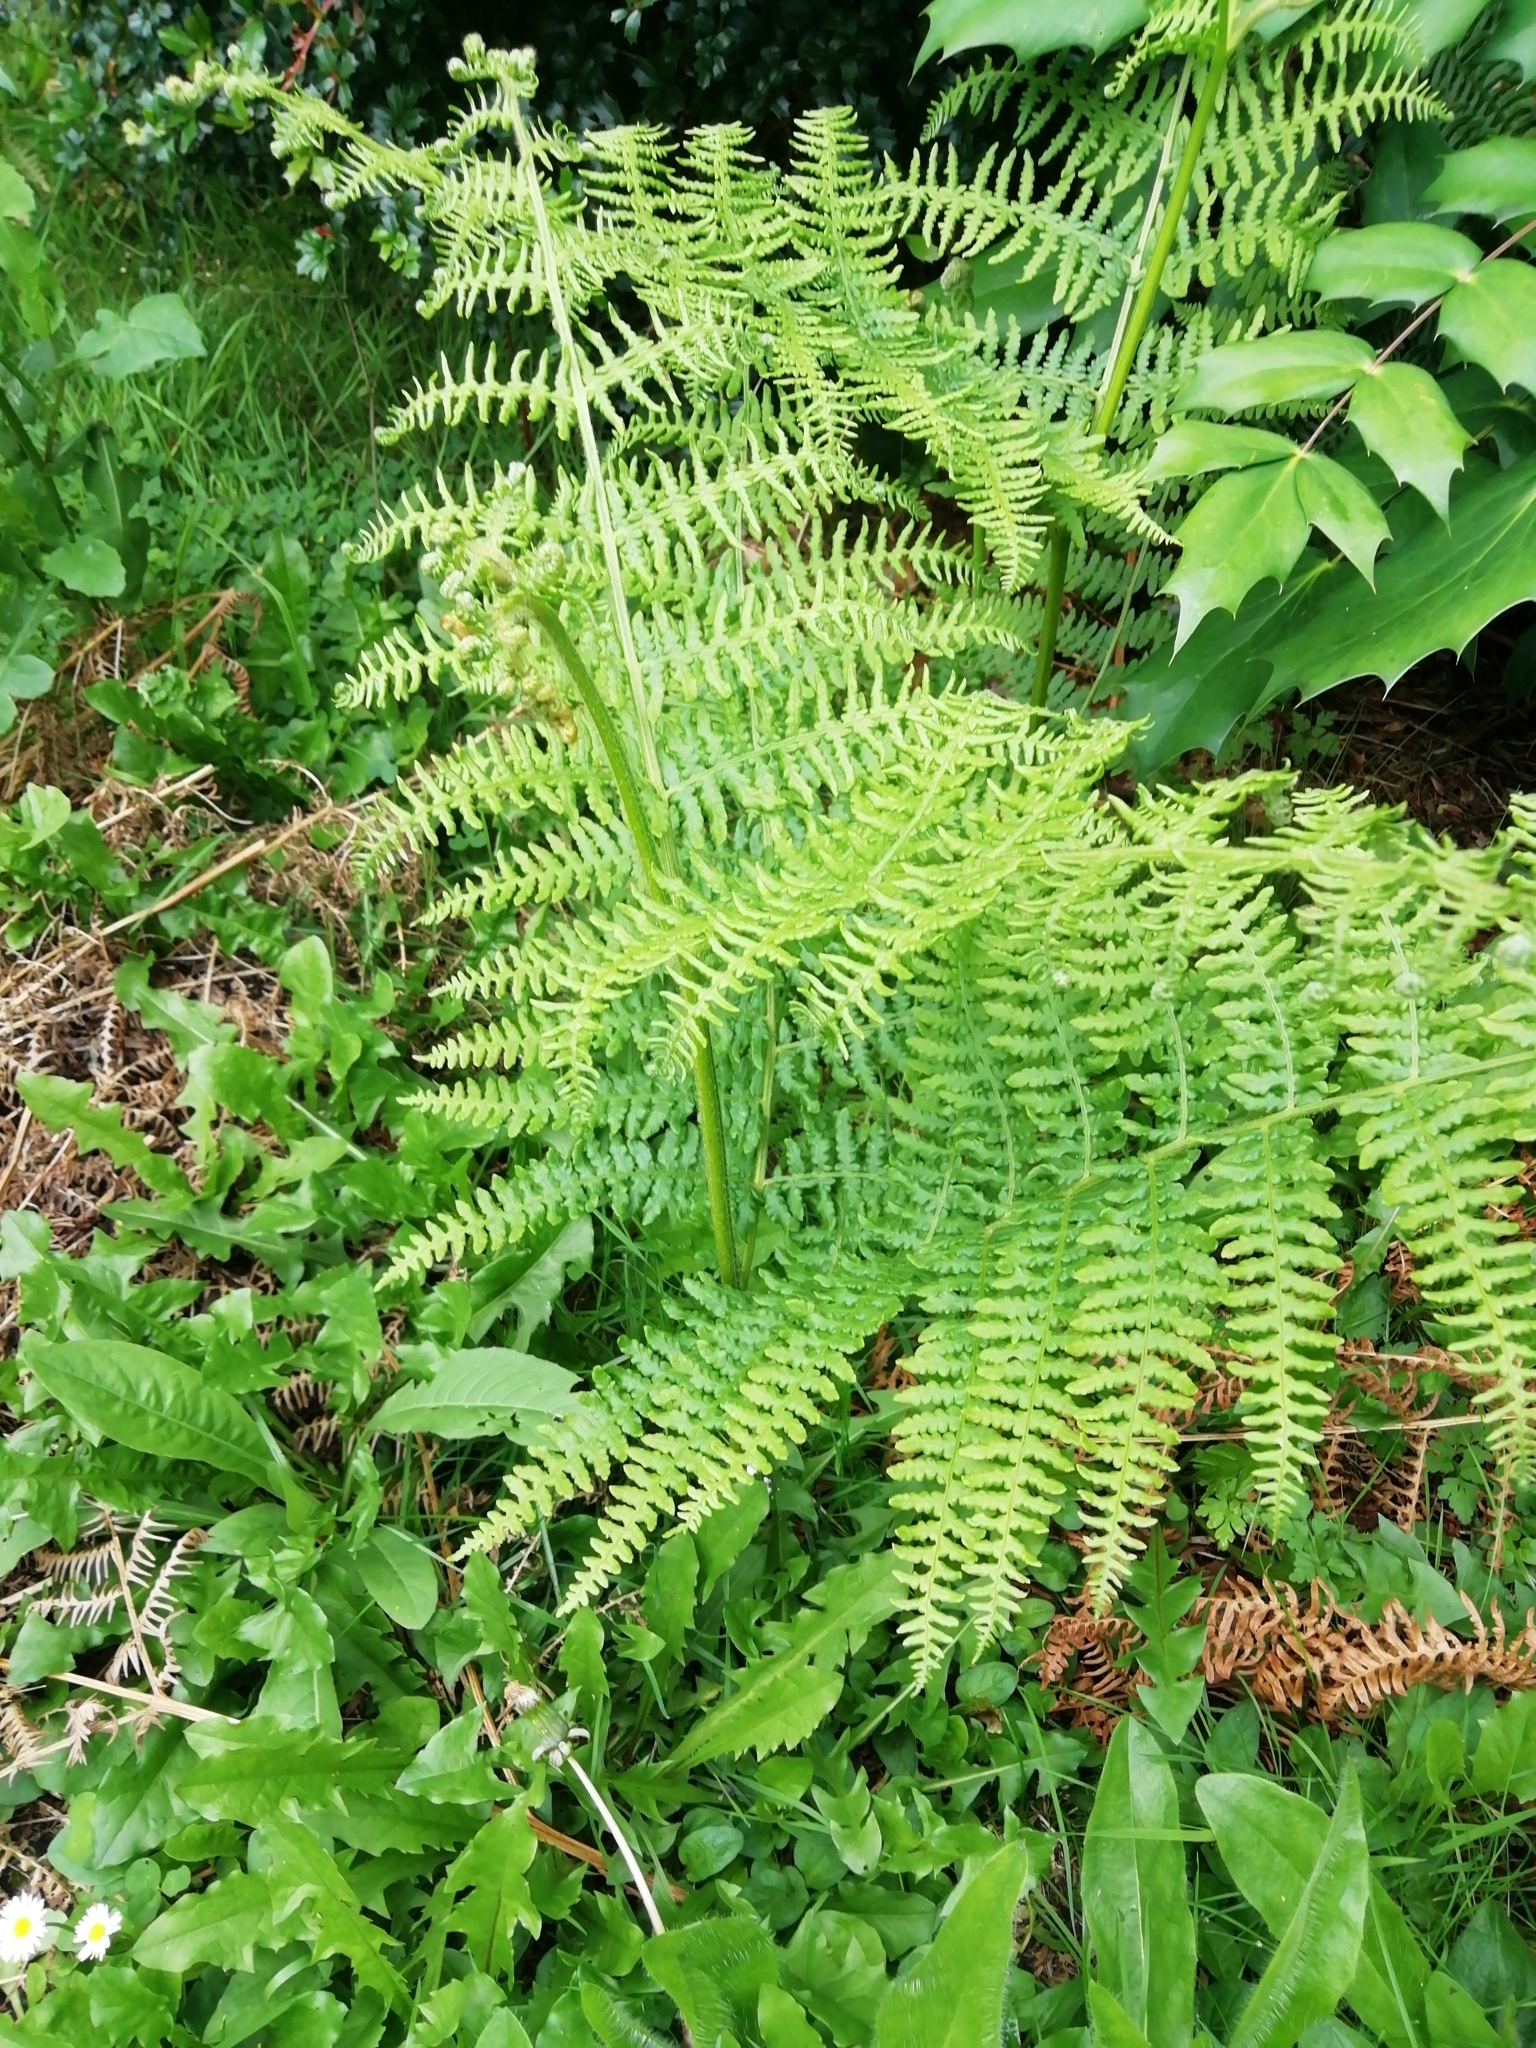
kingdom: Plantae
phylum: Tracheophyta
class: Polypodiopsida
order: Polypodiales
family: Dennstaedtiaceae
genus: Pteridium
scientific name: Pteridium aquilinum
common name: Bracken
